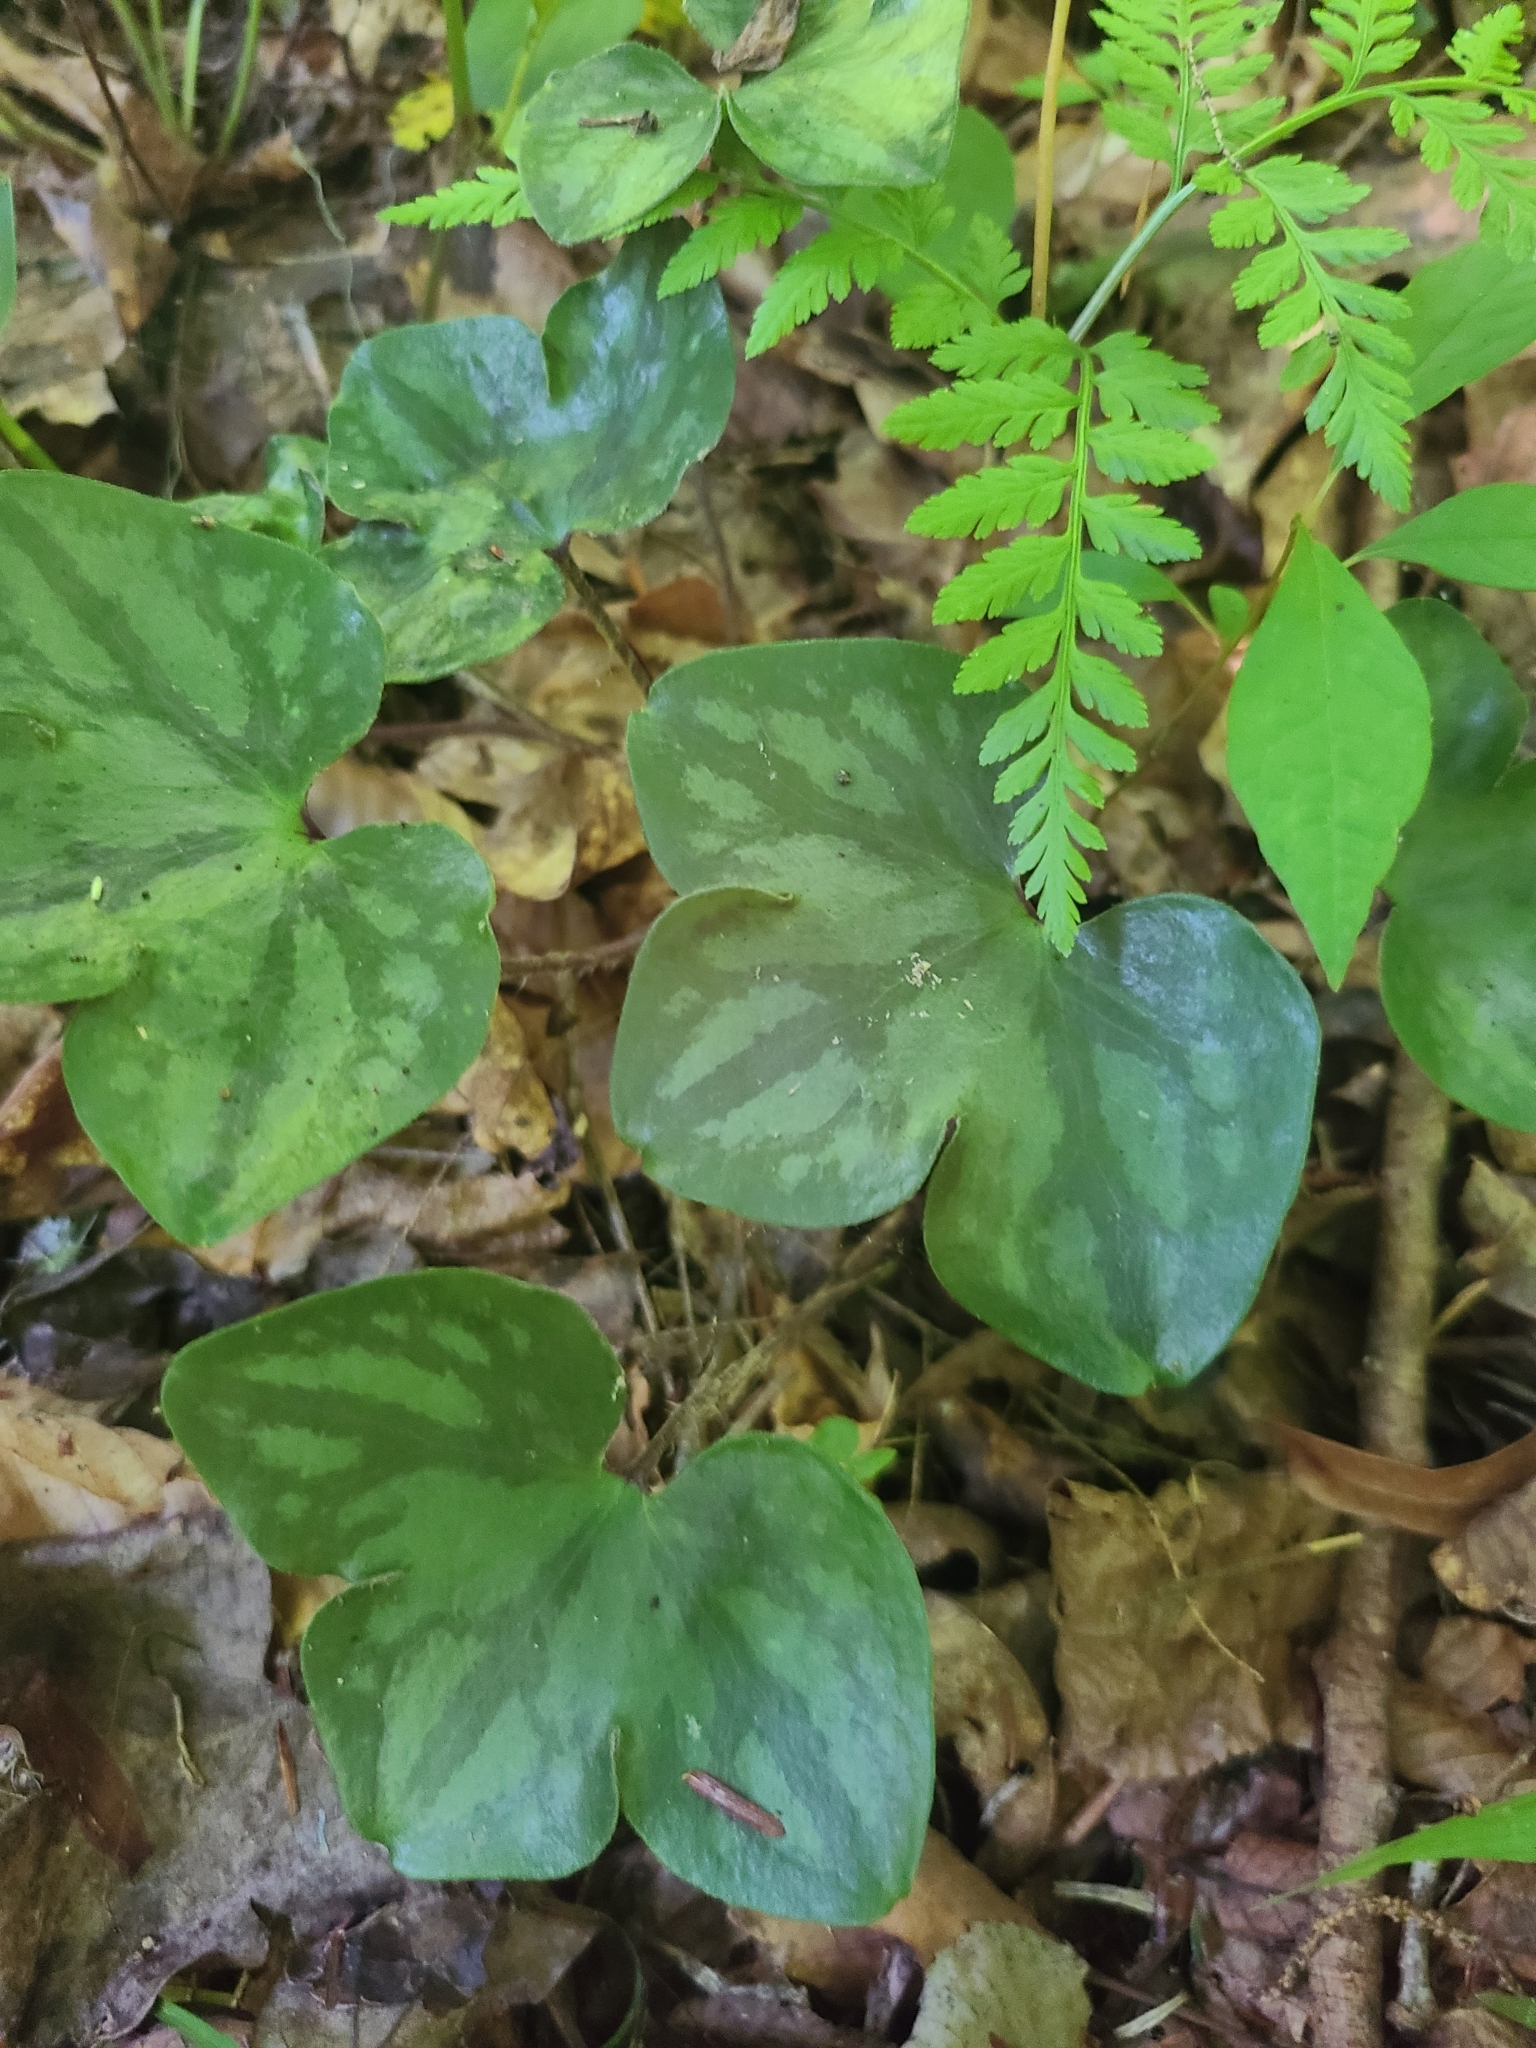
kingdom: Plantae
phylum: Tracheophyta
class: Magnoliopsida
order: Ranunculales
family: Ranunculaceae
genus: Hepatica
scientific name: Hepatica americana
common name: American hepatica
